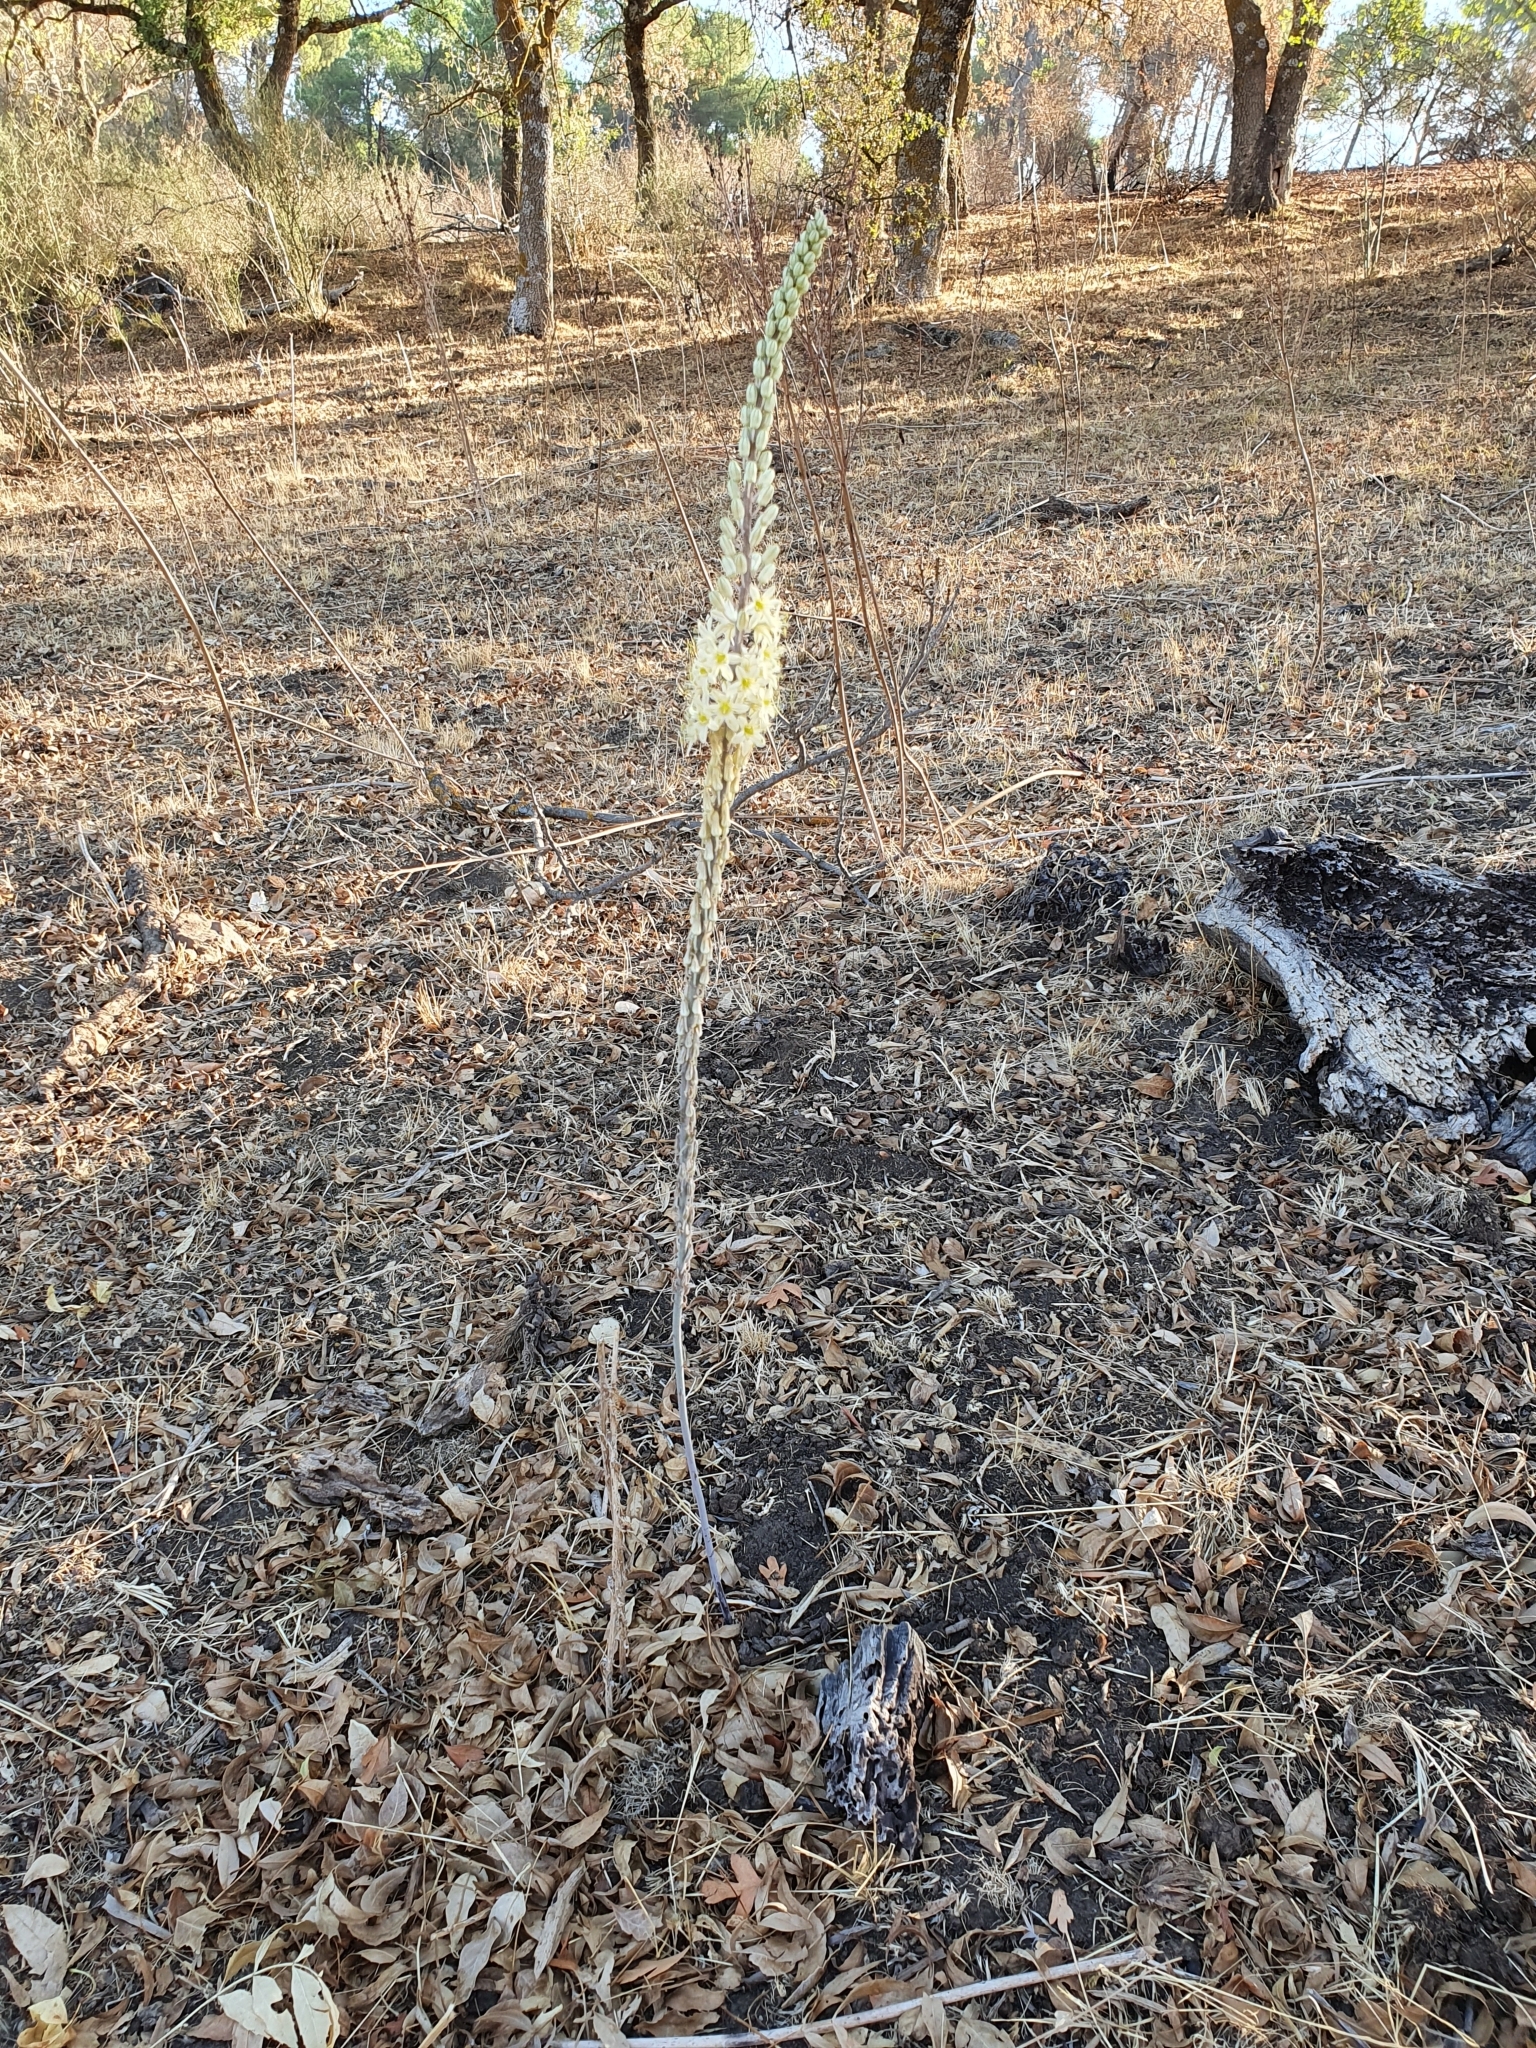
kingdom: Plantae
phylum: Tracheophyta
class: Liliopsida
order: Asparagales
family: Asparagaceae
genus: Drimia
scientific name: Drimia anthericoides
